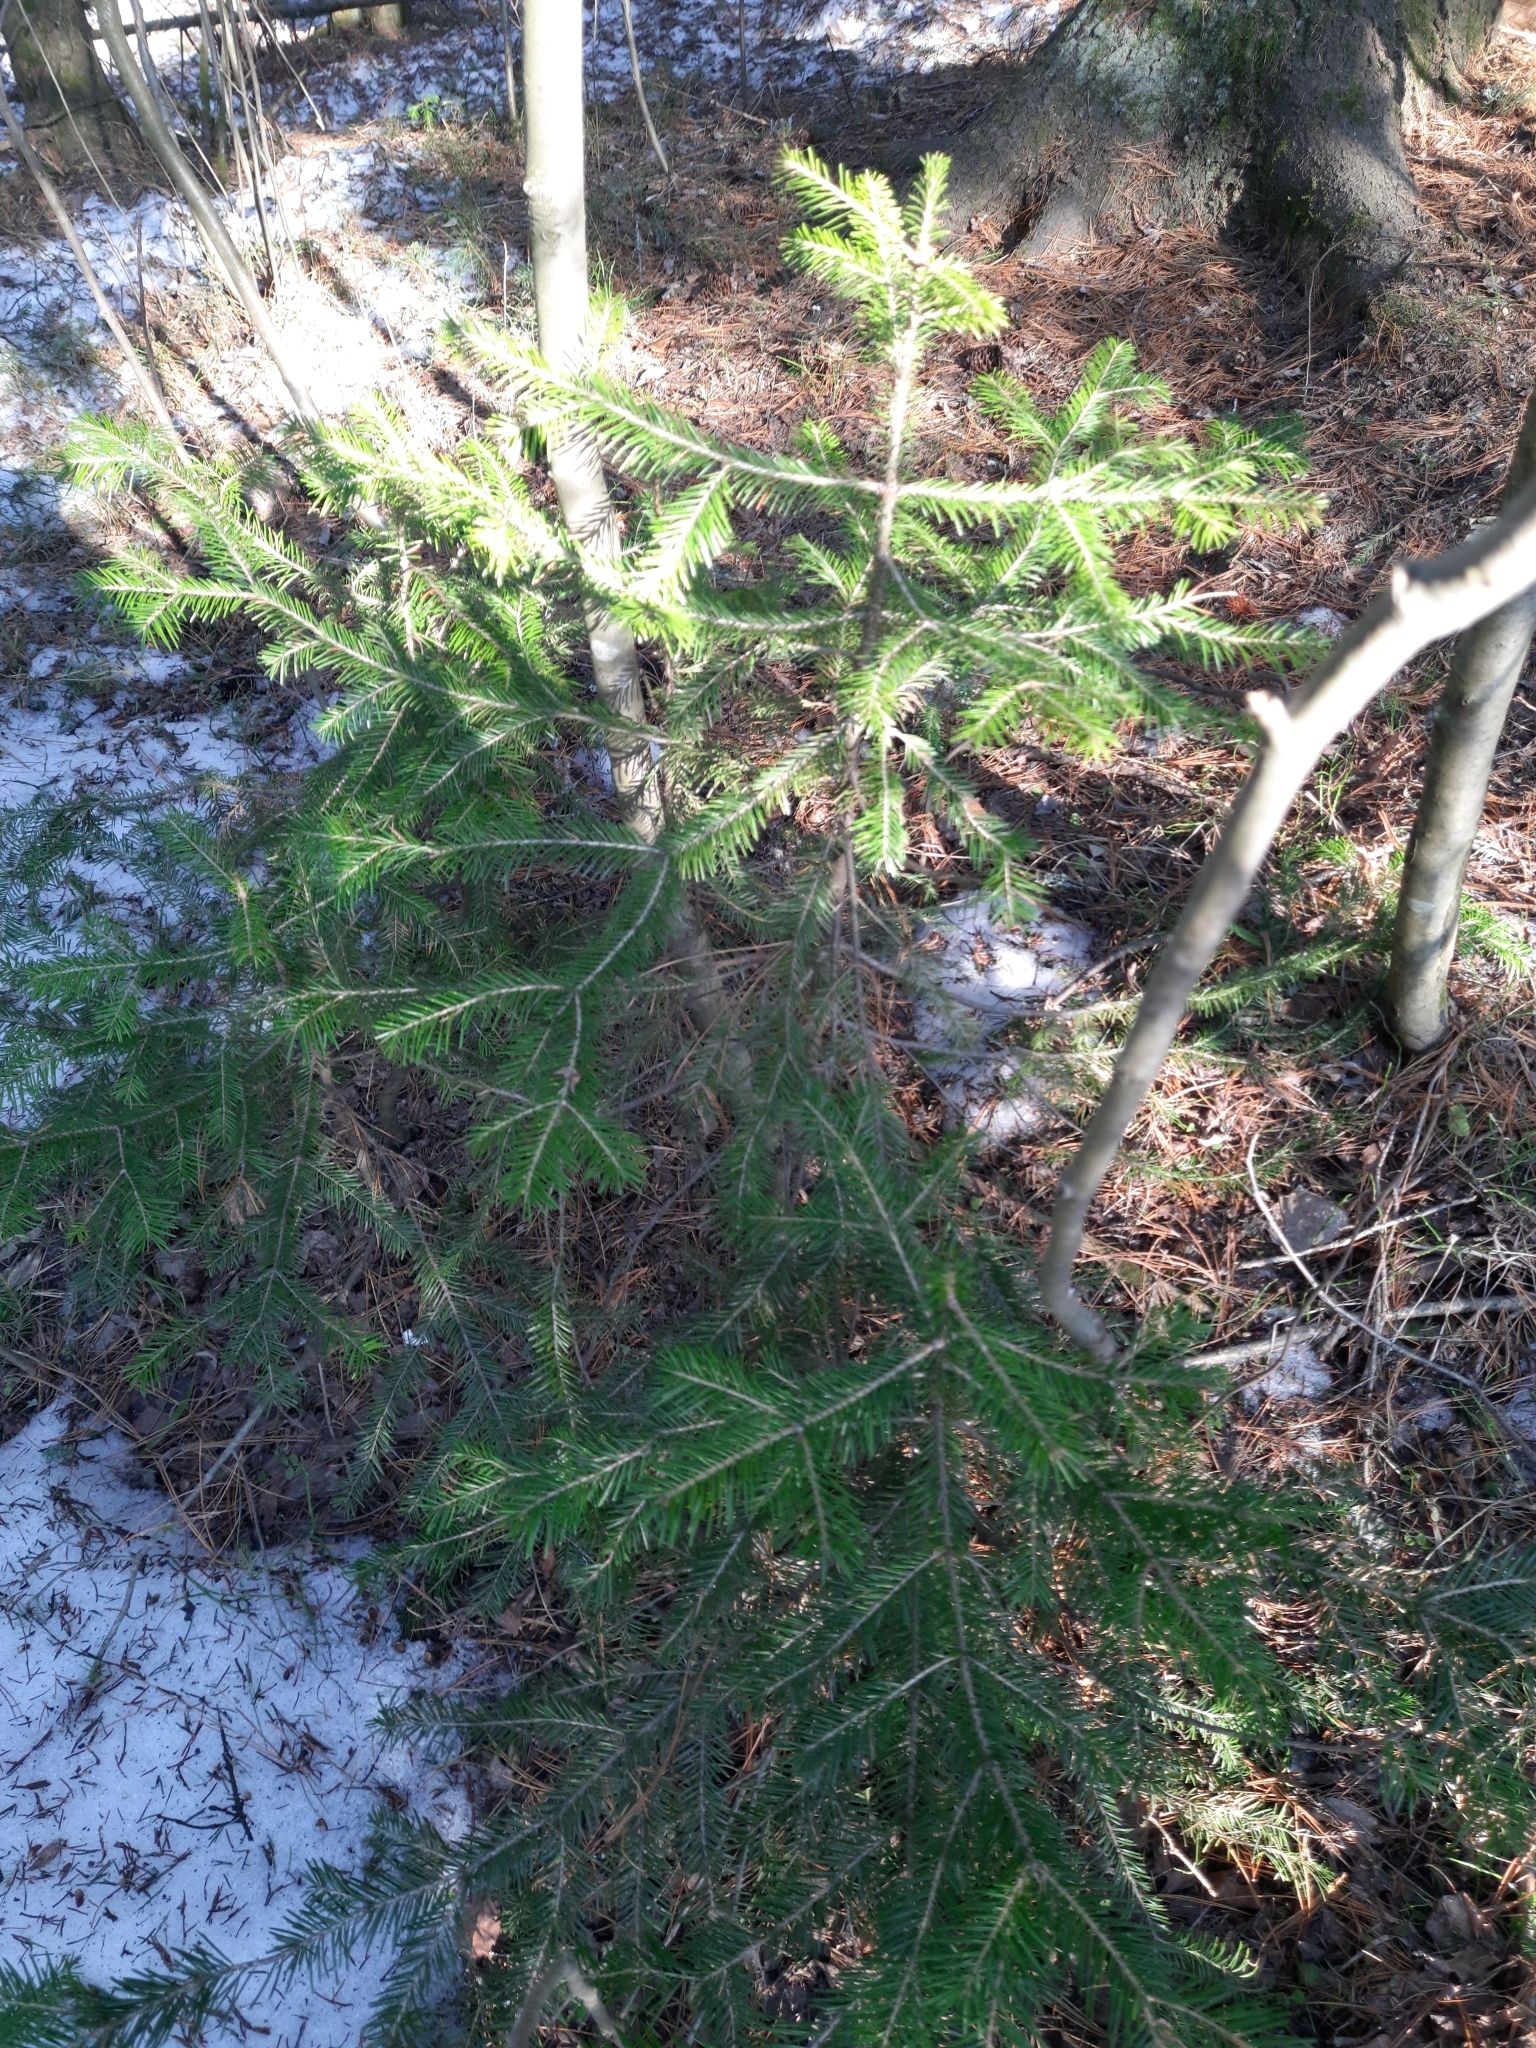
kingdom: Plantae
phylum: Tracheophyta
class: Pinopsida
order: Pinales
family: Pinaceae
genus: Abies
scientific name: Abies sibirica
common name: Siberian fir
